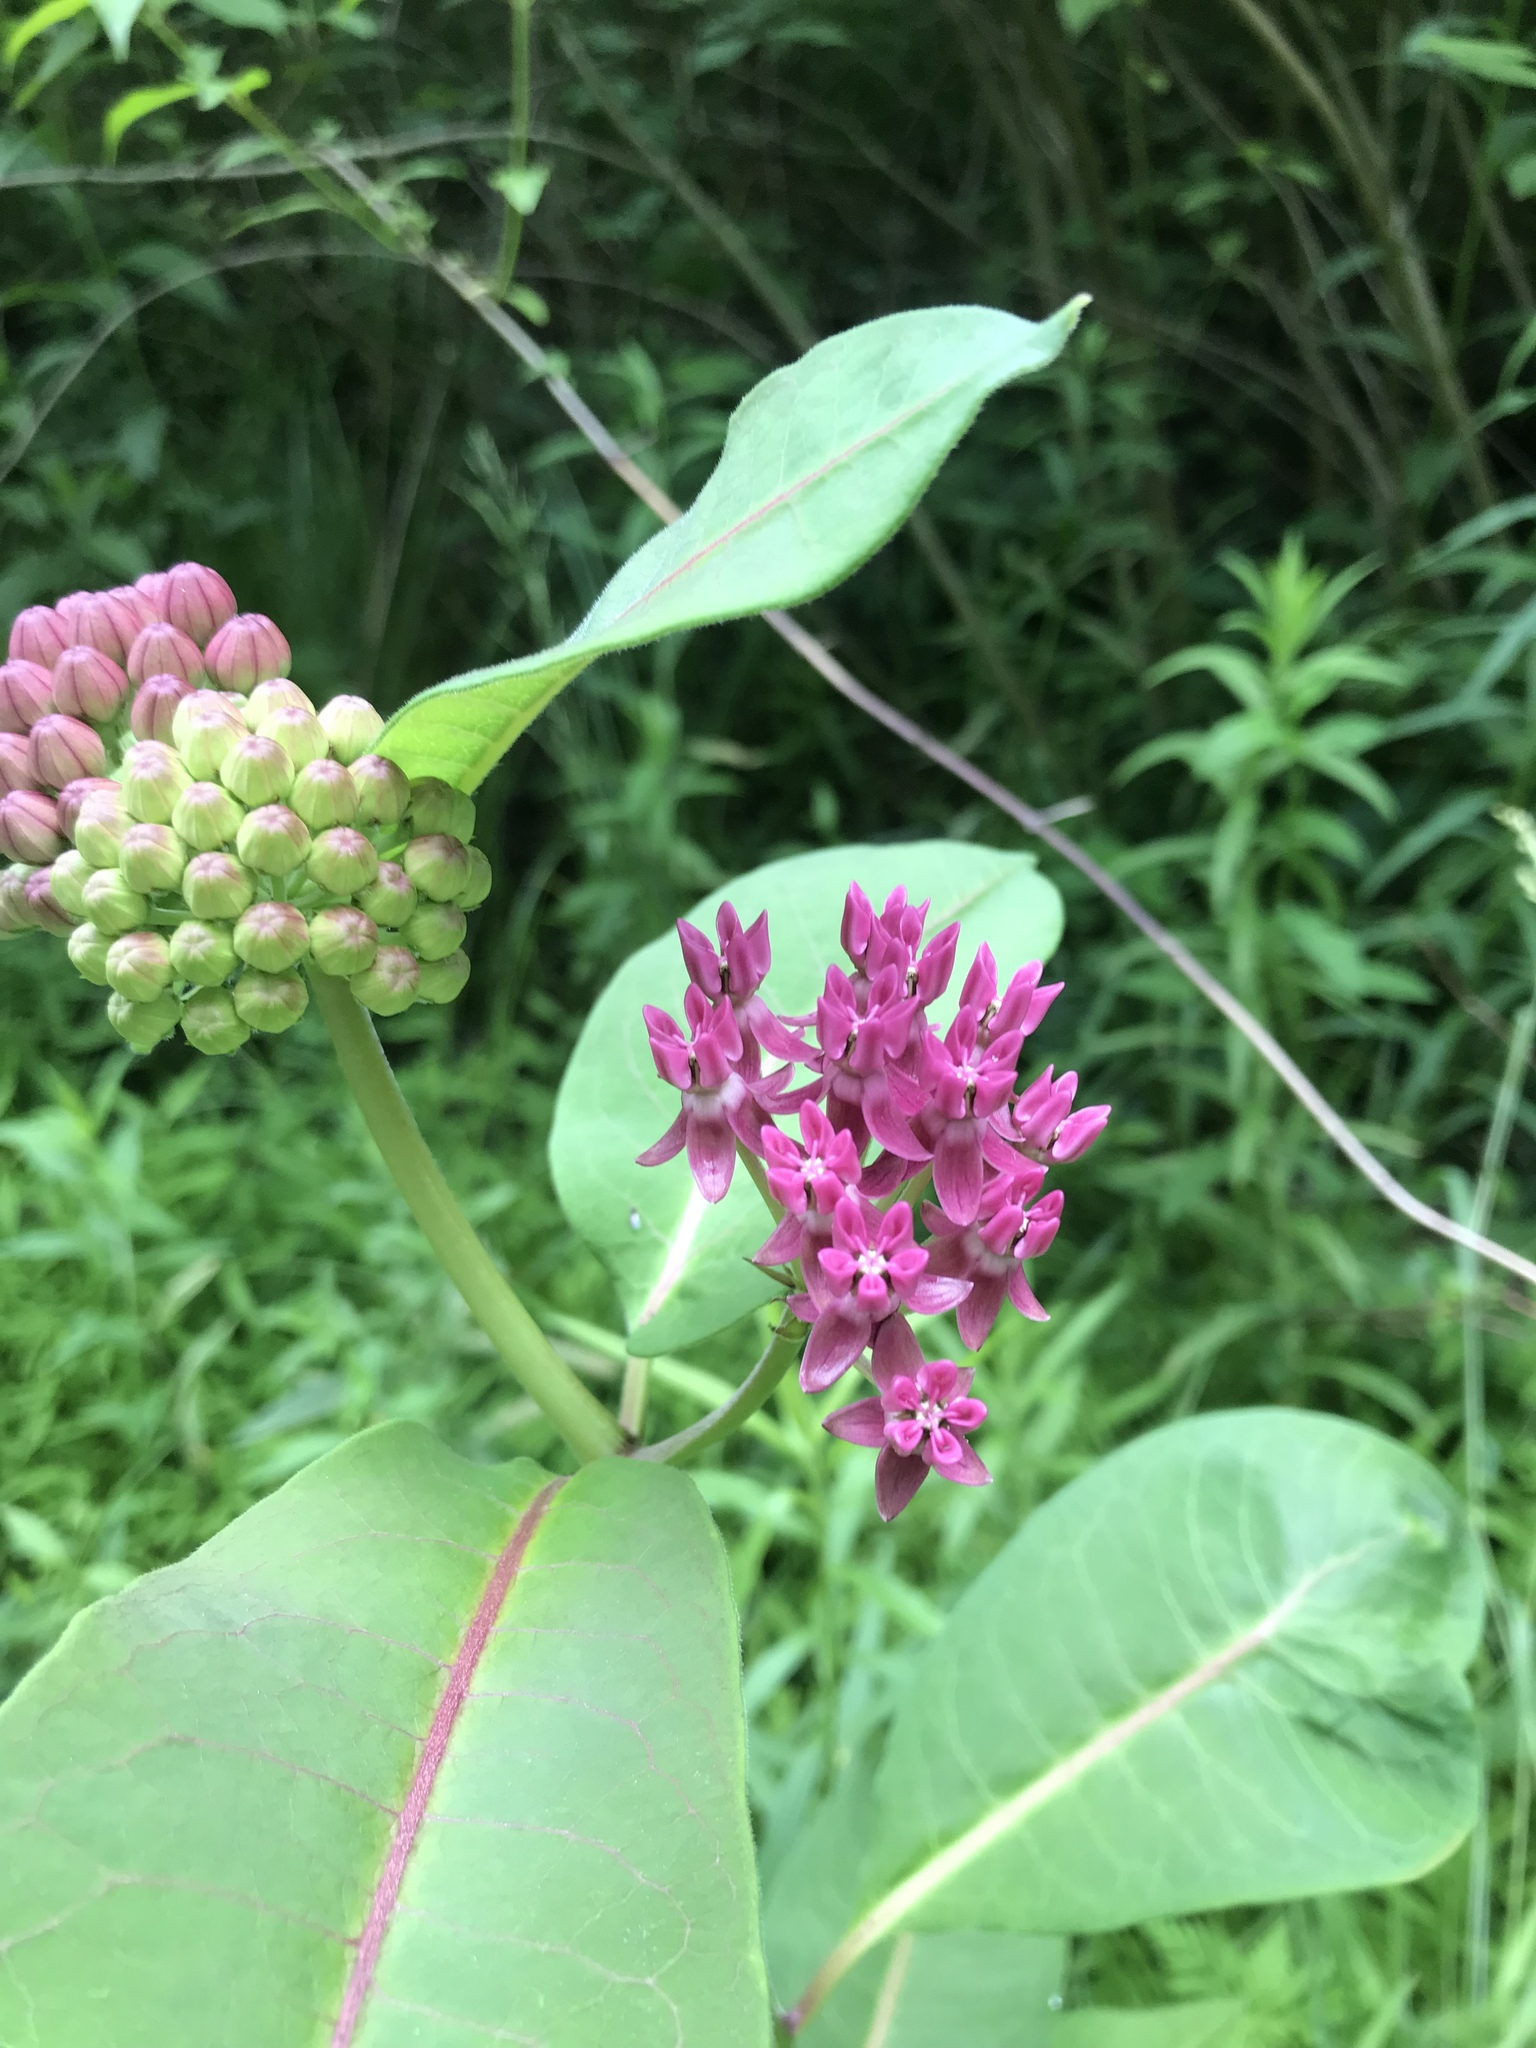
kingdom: Plantae
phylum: Tracheophyta
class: Magnoliopsida
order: Gentianales
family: Apocynaceae
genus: Asclepias
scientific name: Asclepias purpurascens
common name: Purple milkweed
